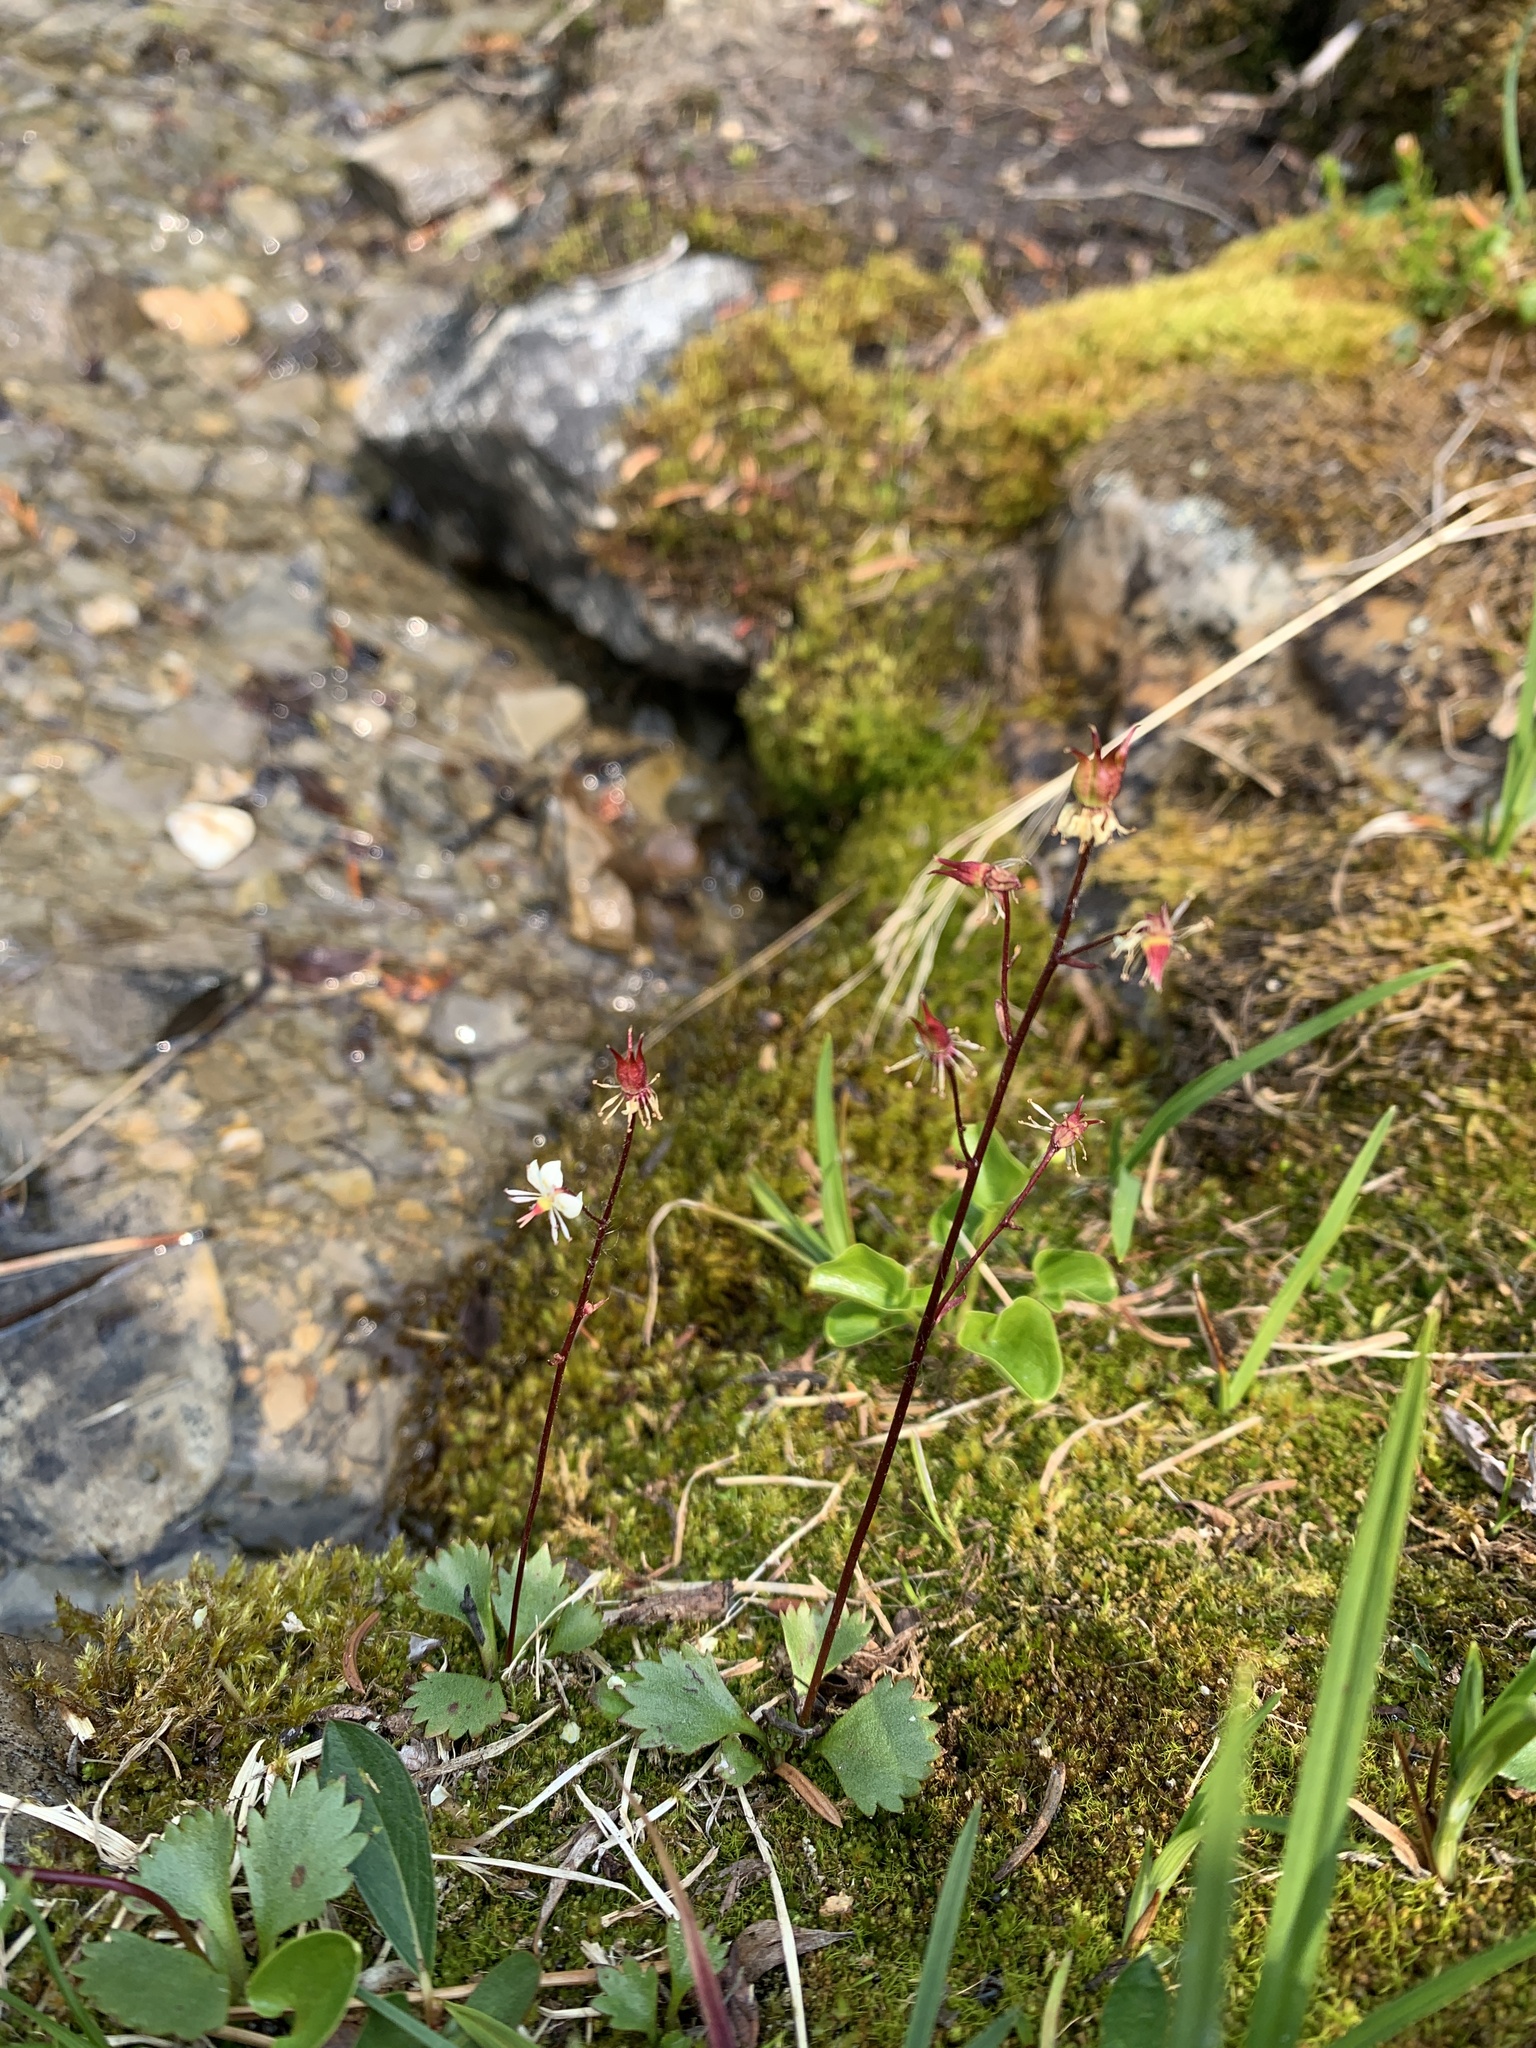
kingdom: Plantae
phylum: Tracheophyta
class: Magnoliopsida
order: Saxifragales
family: Saxifragaceae
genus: Micranthes
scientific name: Micranthes lyallii
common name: Lyall's saxifrage
